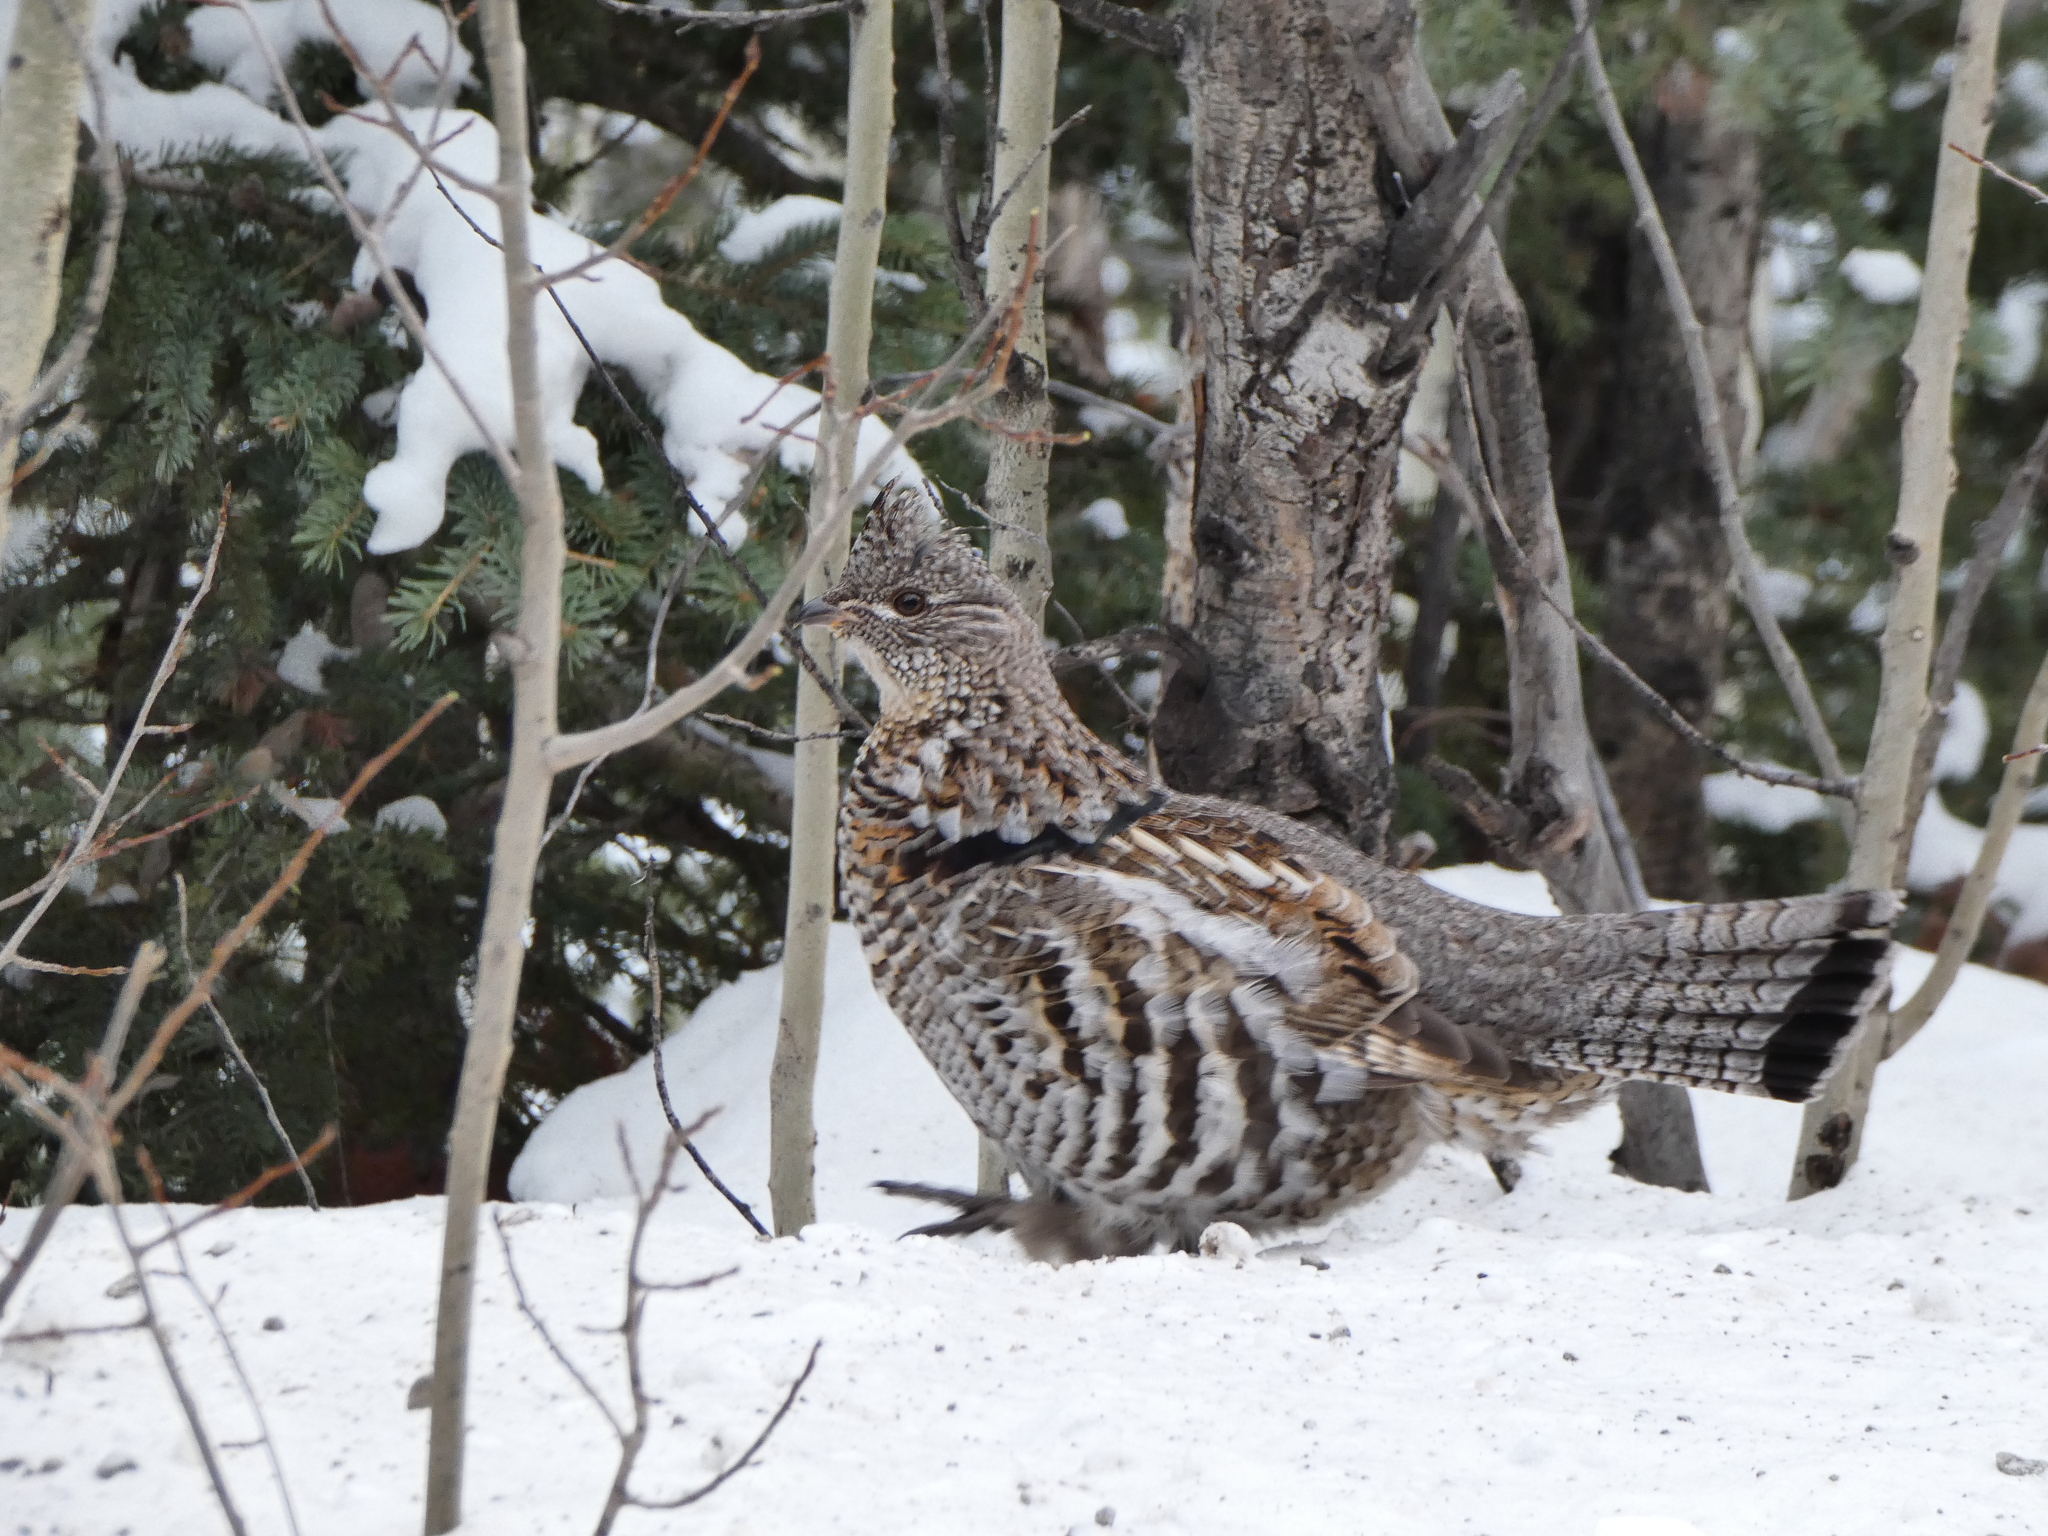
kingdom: Animalia
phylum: Chordata
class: Aves
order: Galliformes
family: Phasianidae
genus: Bonasa
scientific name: Bonasa umbellus
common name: Ruffed grouse
